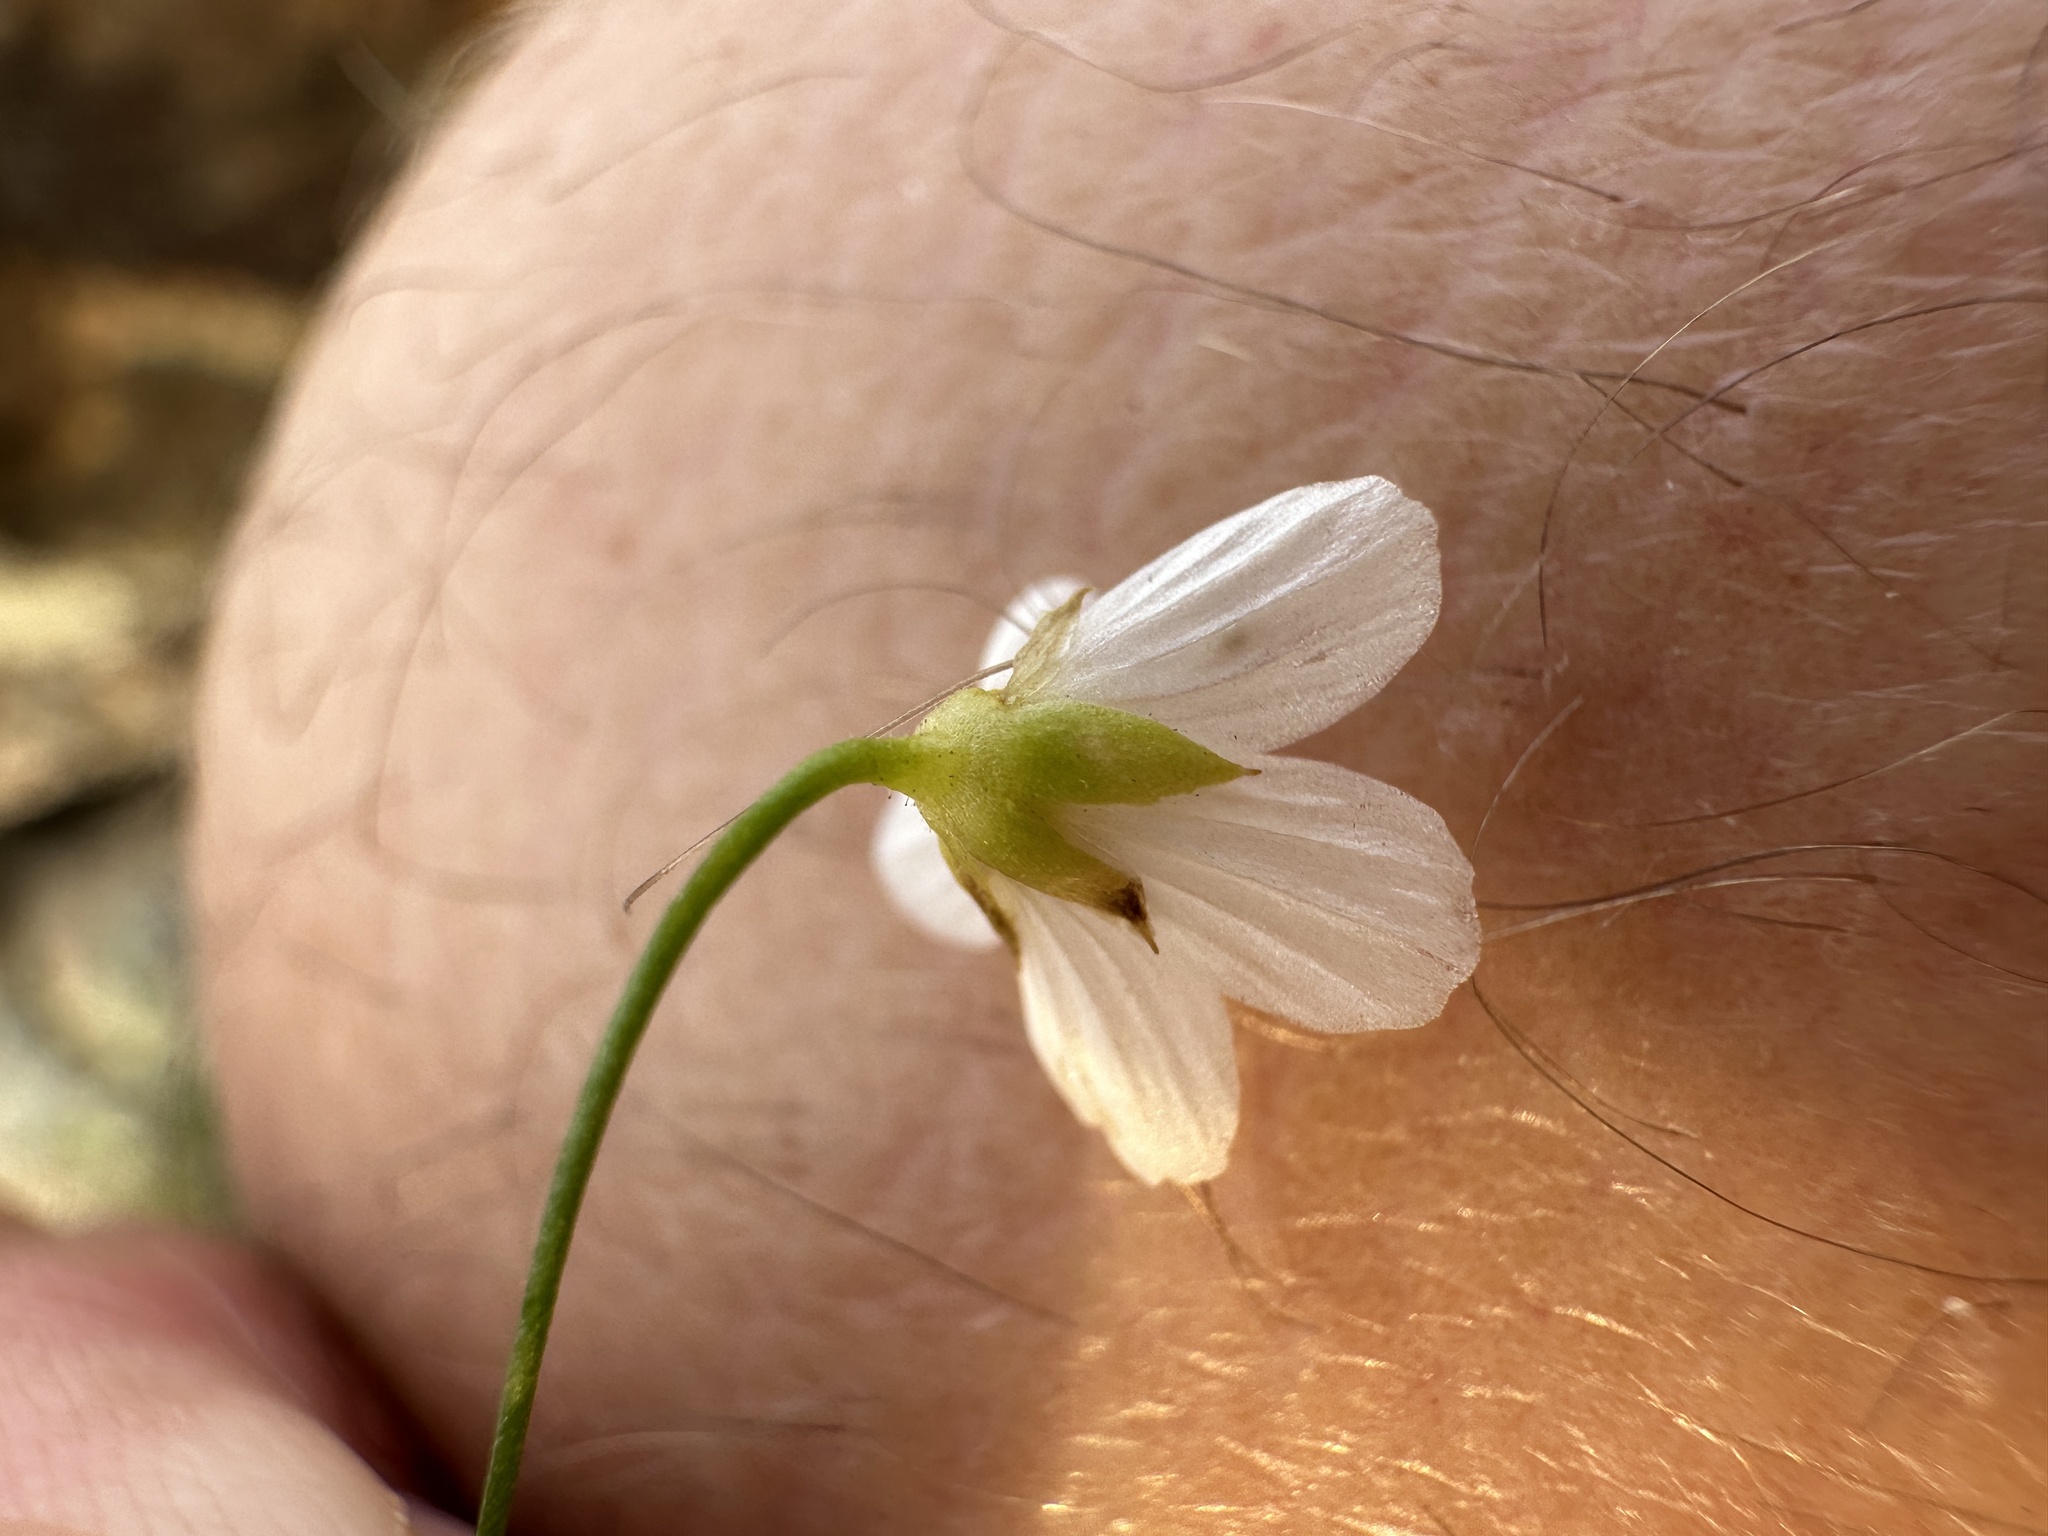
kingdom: Plantae
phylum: Tracheophyta
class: Magnoliopsida
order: Caryophyllales
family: Caryophyllaceae
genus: Sabulina
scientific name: Sabulina douglasii
